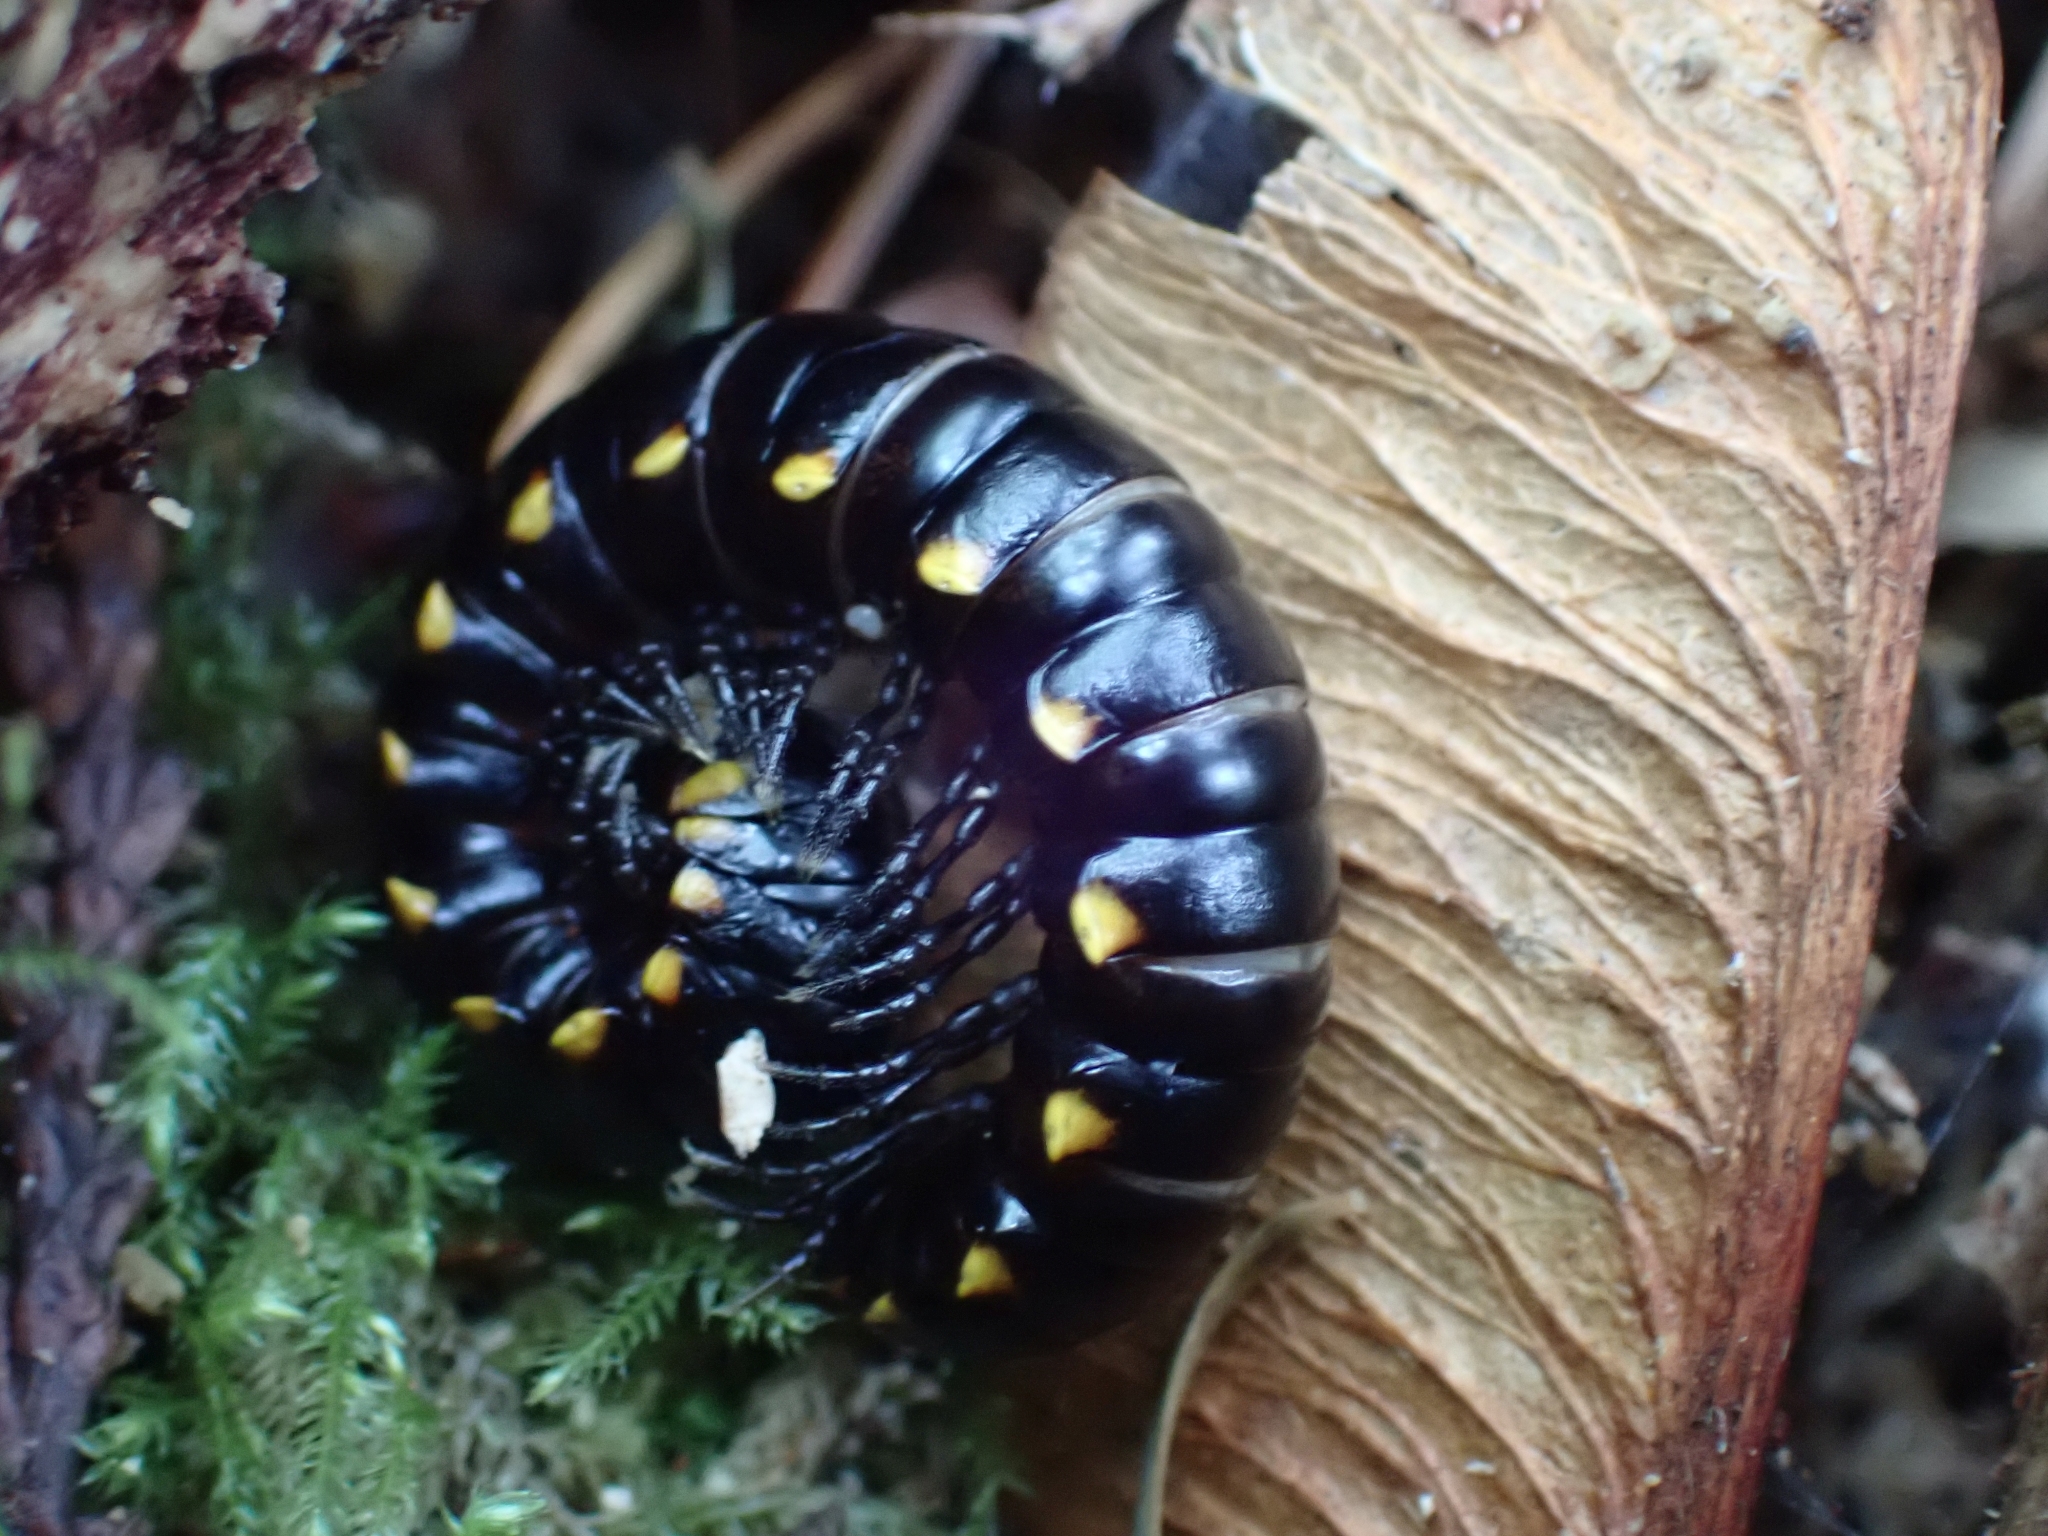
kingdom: Animalia
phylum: Arthropoda
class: Diplopoda
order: Polydesmida
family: Xystodesmidae
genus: Harpaphe
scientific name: Harpaphe haydeniana
